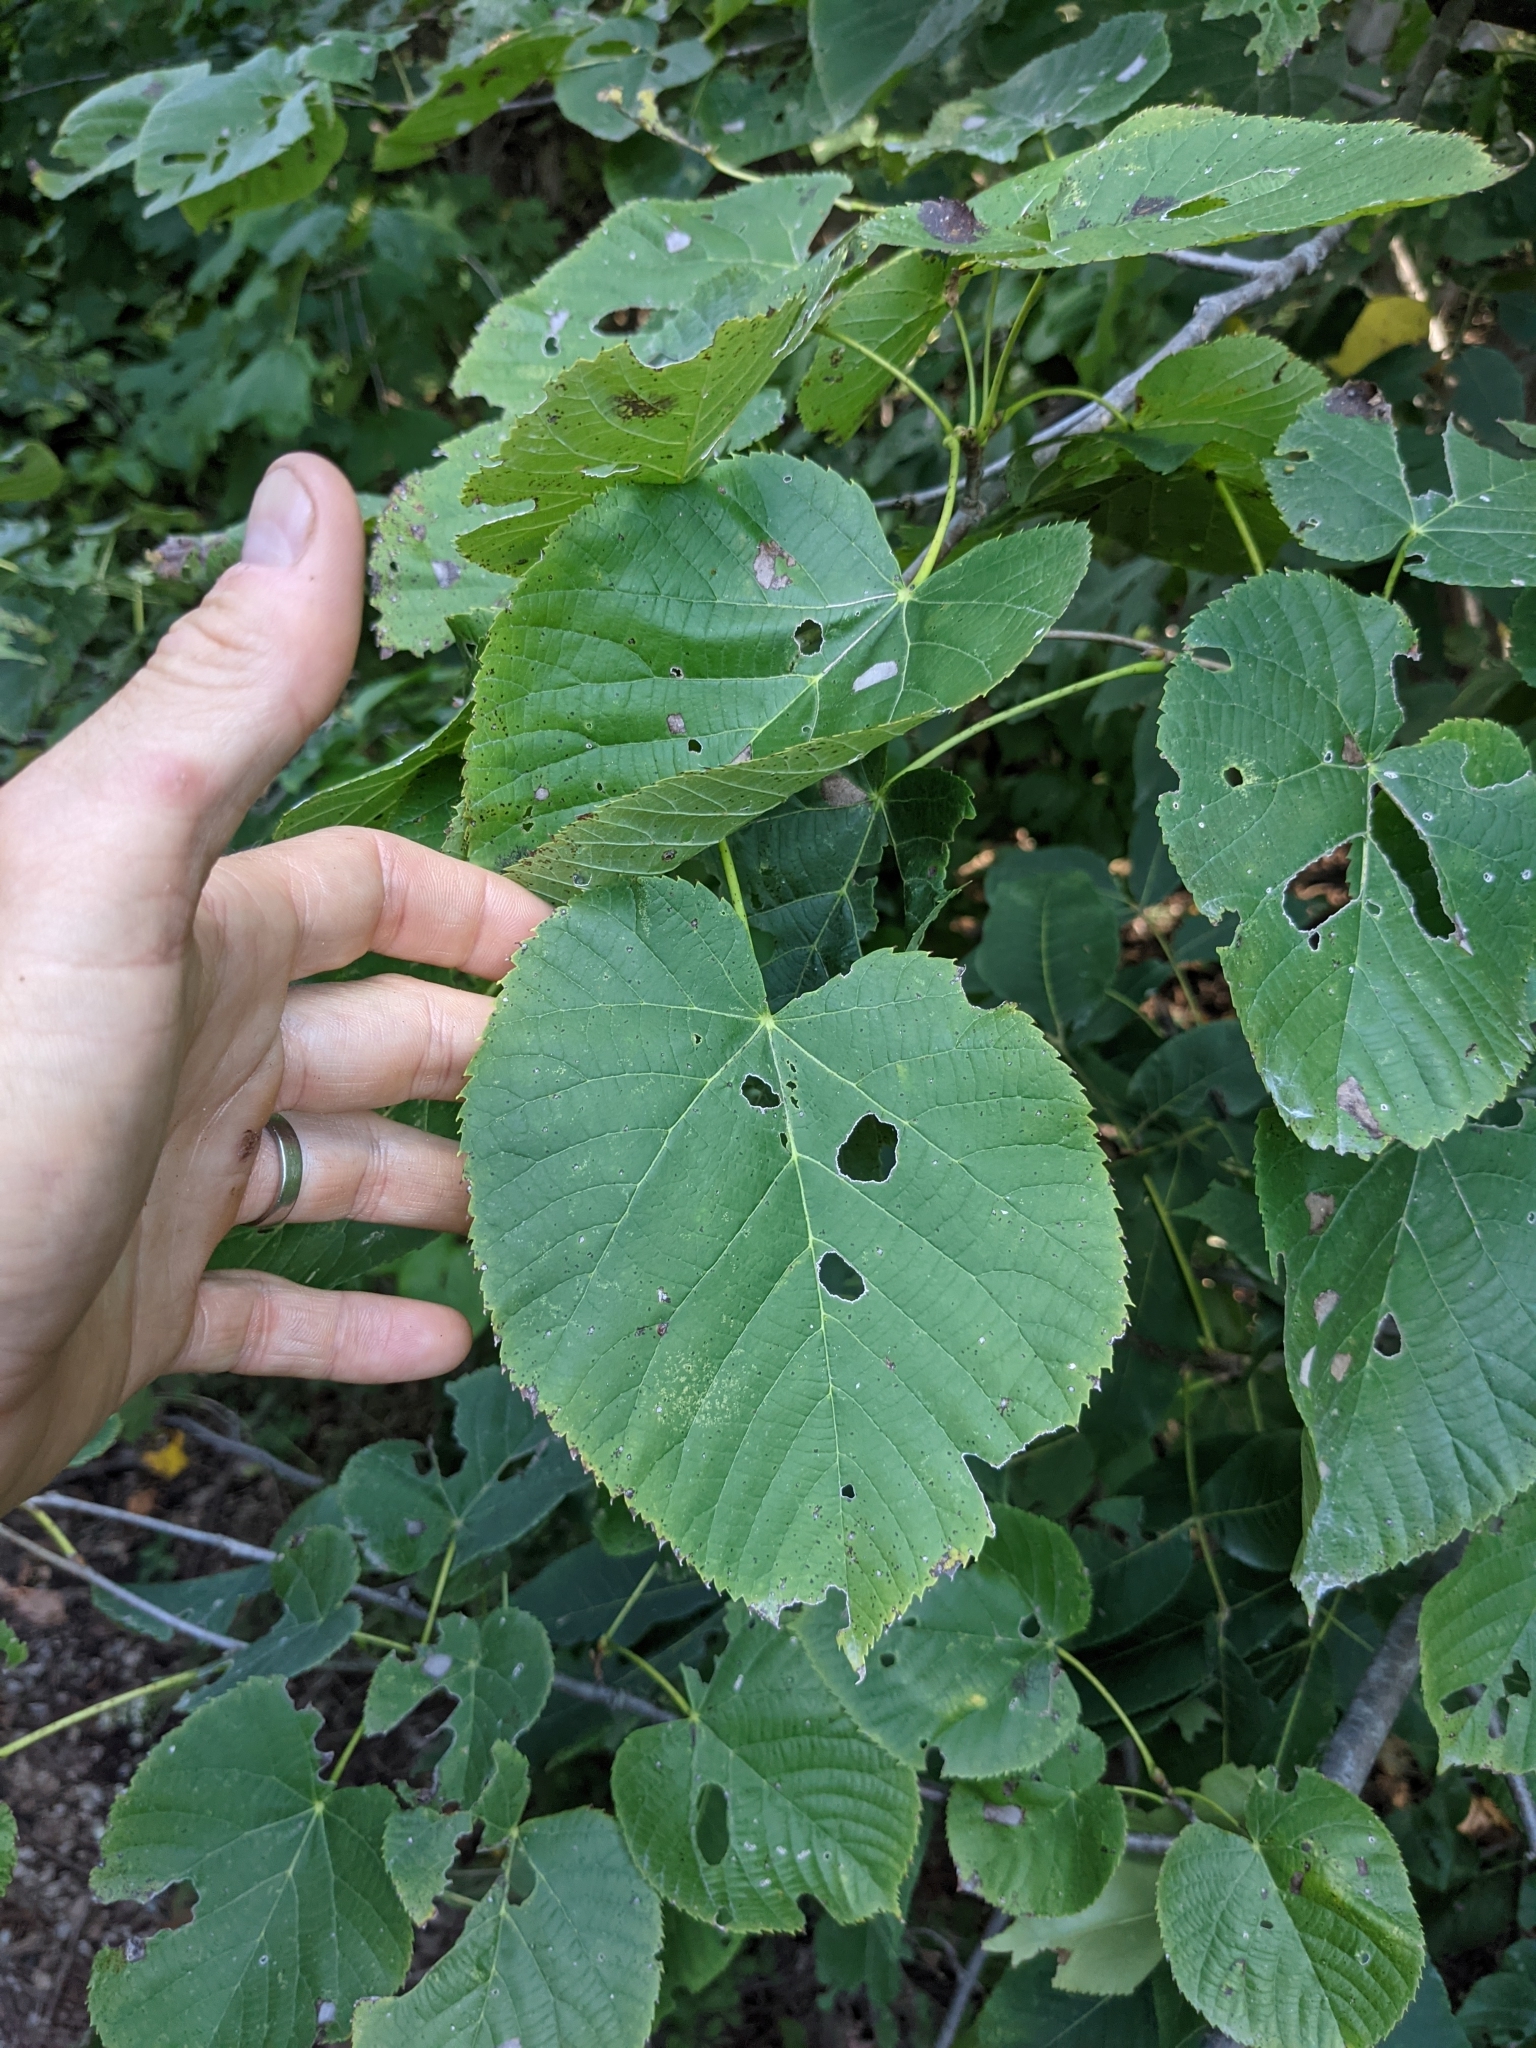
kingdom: Plantae
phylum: Tracheophyta
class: Magnoliopsida
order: Malvales
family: Malvaceae
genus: Tilia
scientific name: Tilia americana
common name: Basswood
